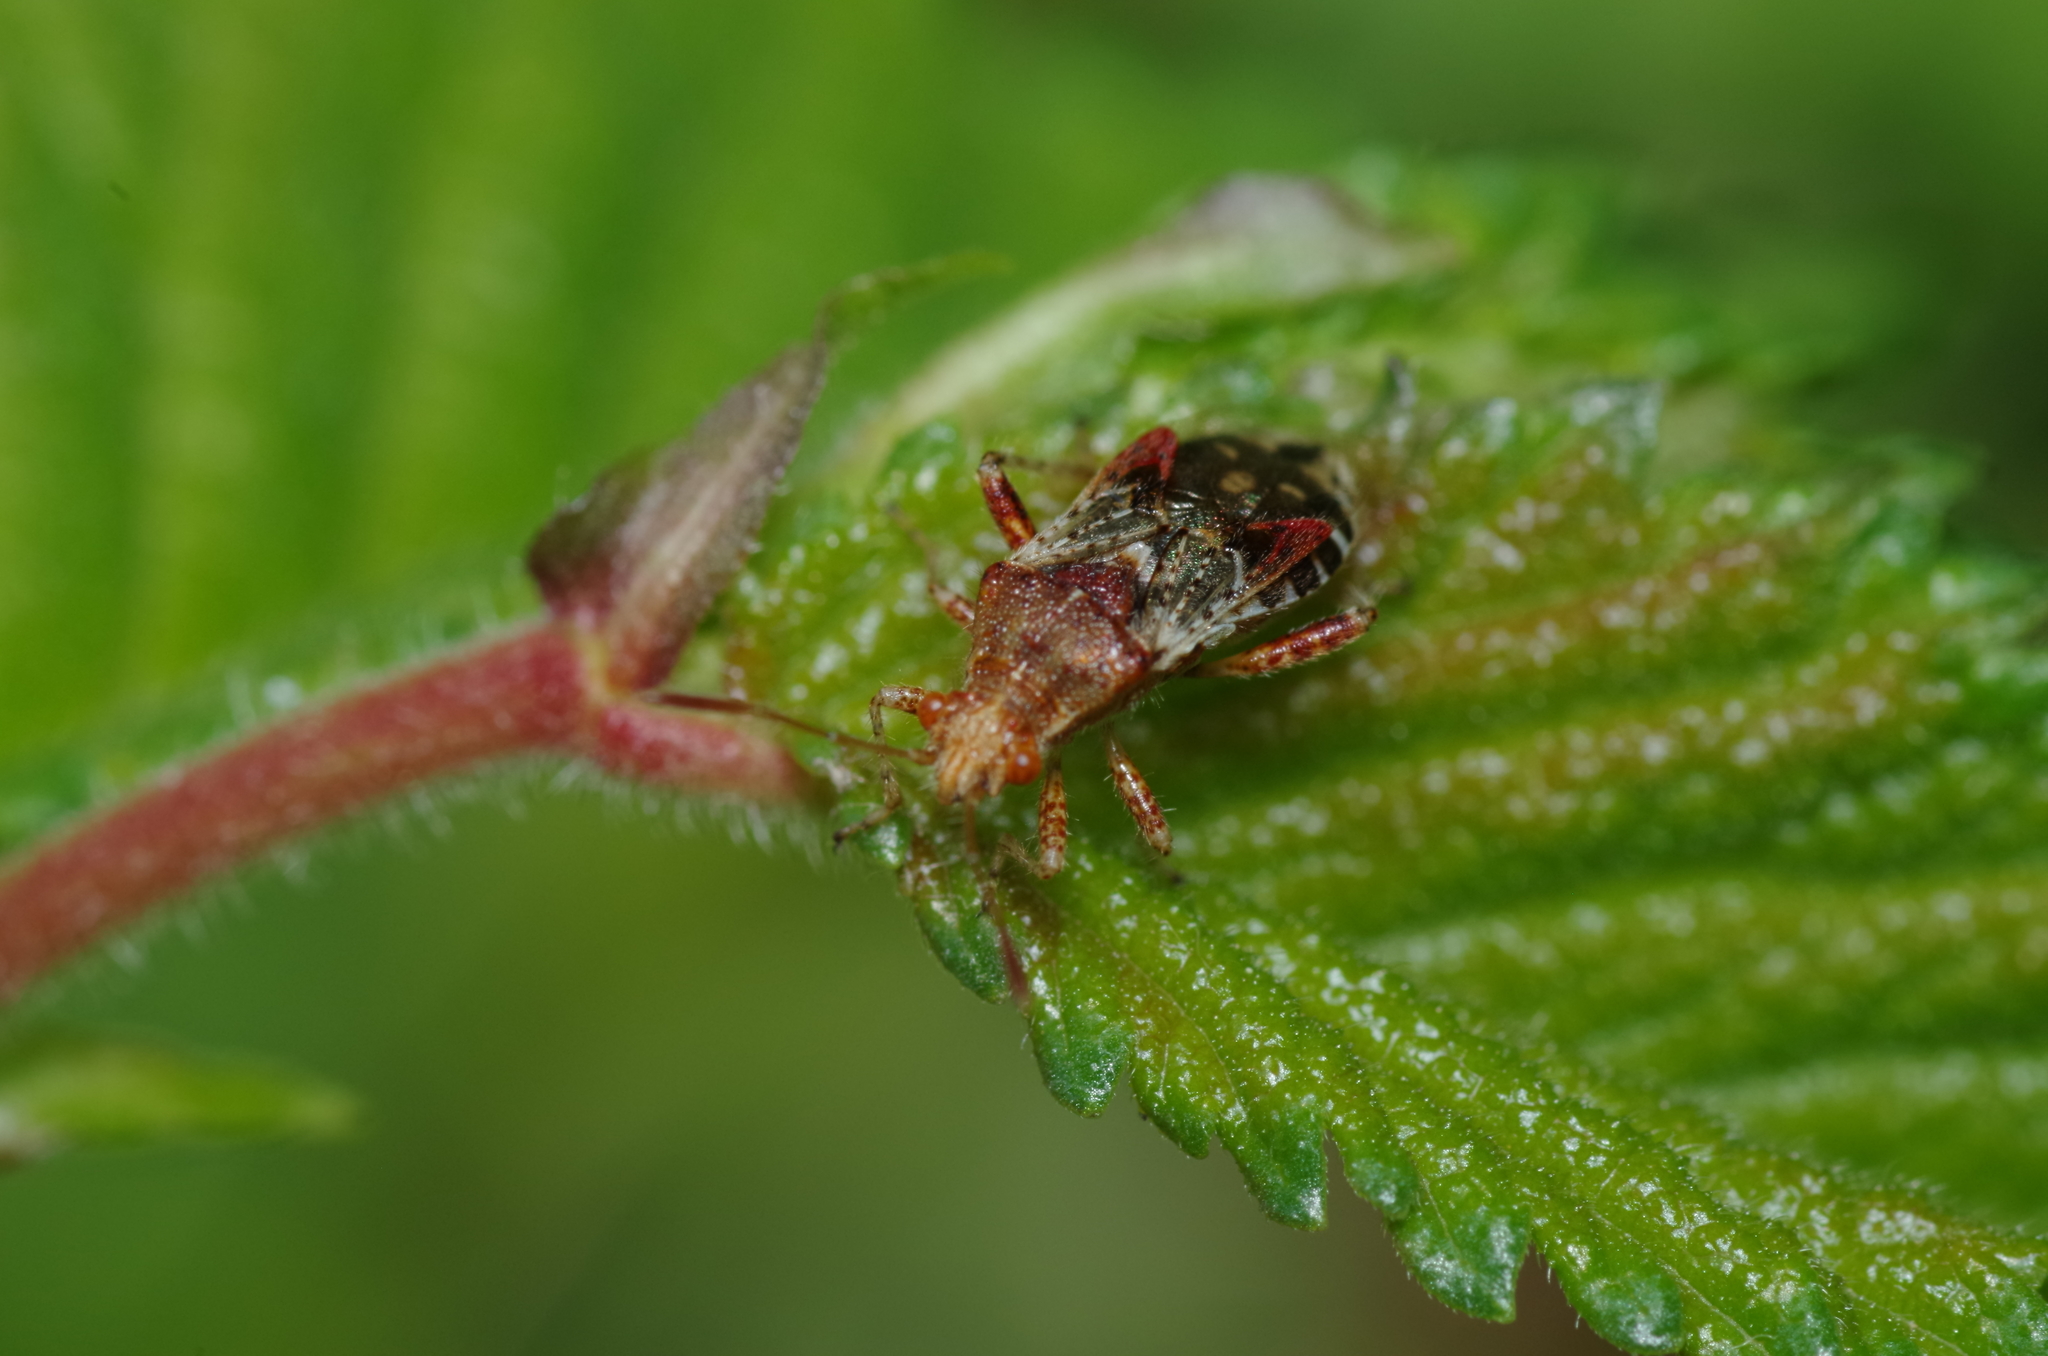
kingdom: Animalia
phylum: Arthropoda
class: Insecta
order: Hemiptera
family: Rhopalidae
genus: Rhopalus
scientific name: Rhopalus subrufus
